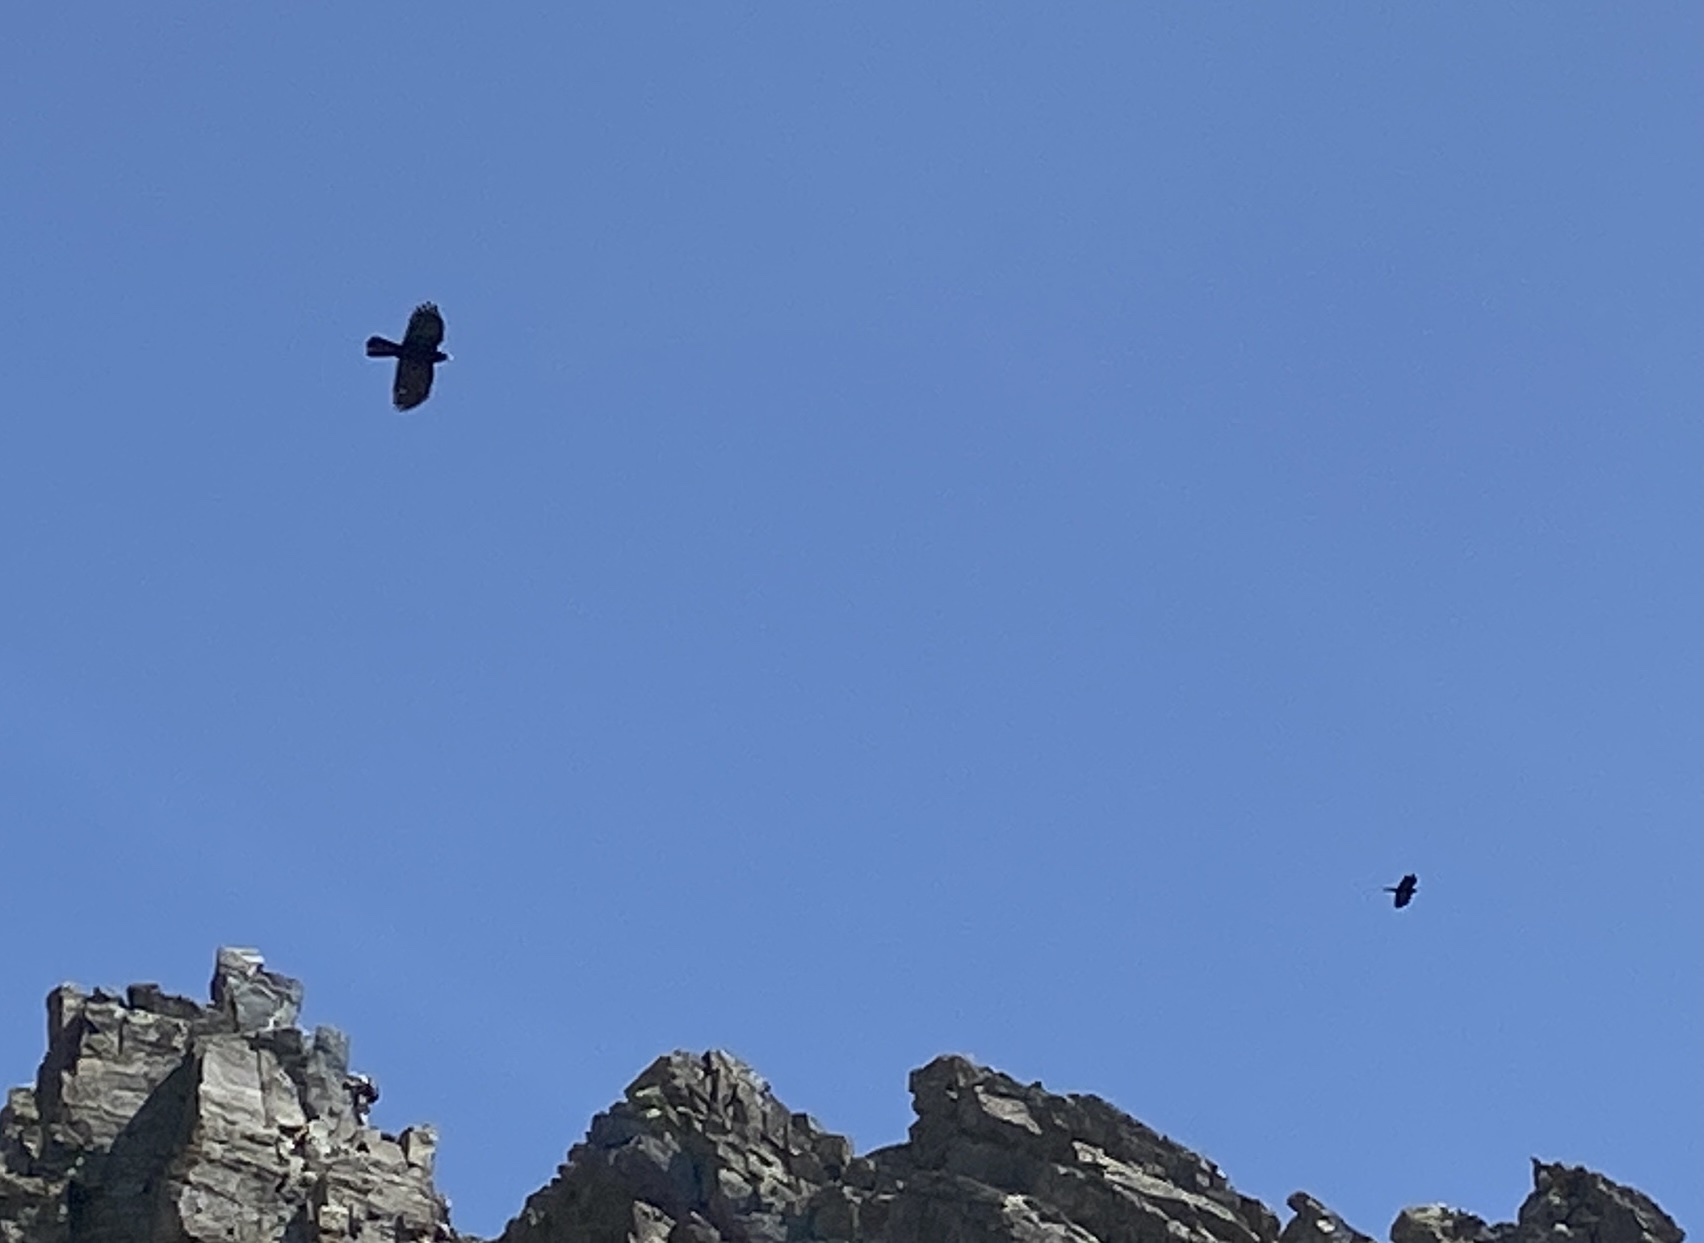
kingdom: Animalia
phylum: Chordata
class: Aves
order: Passeriformes
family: Corvidae
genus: Pyrrhocorax
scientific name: Pyrrhocorax graculus
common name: Alpine chough
